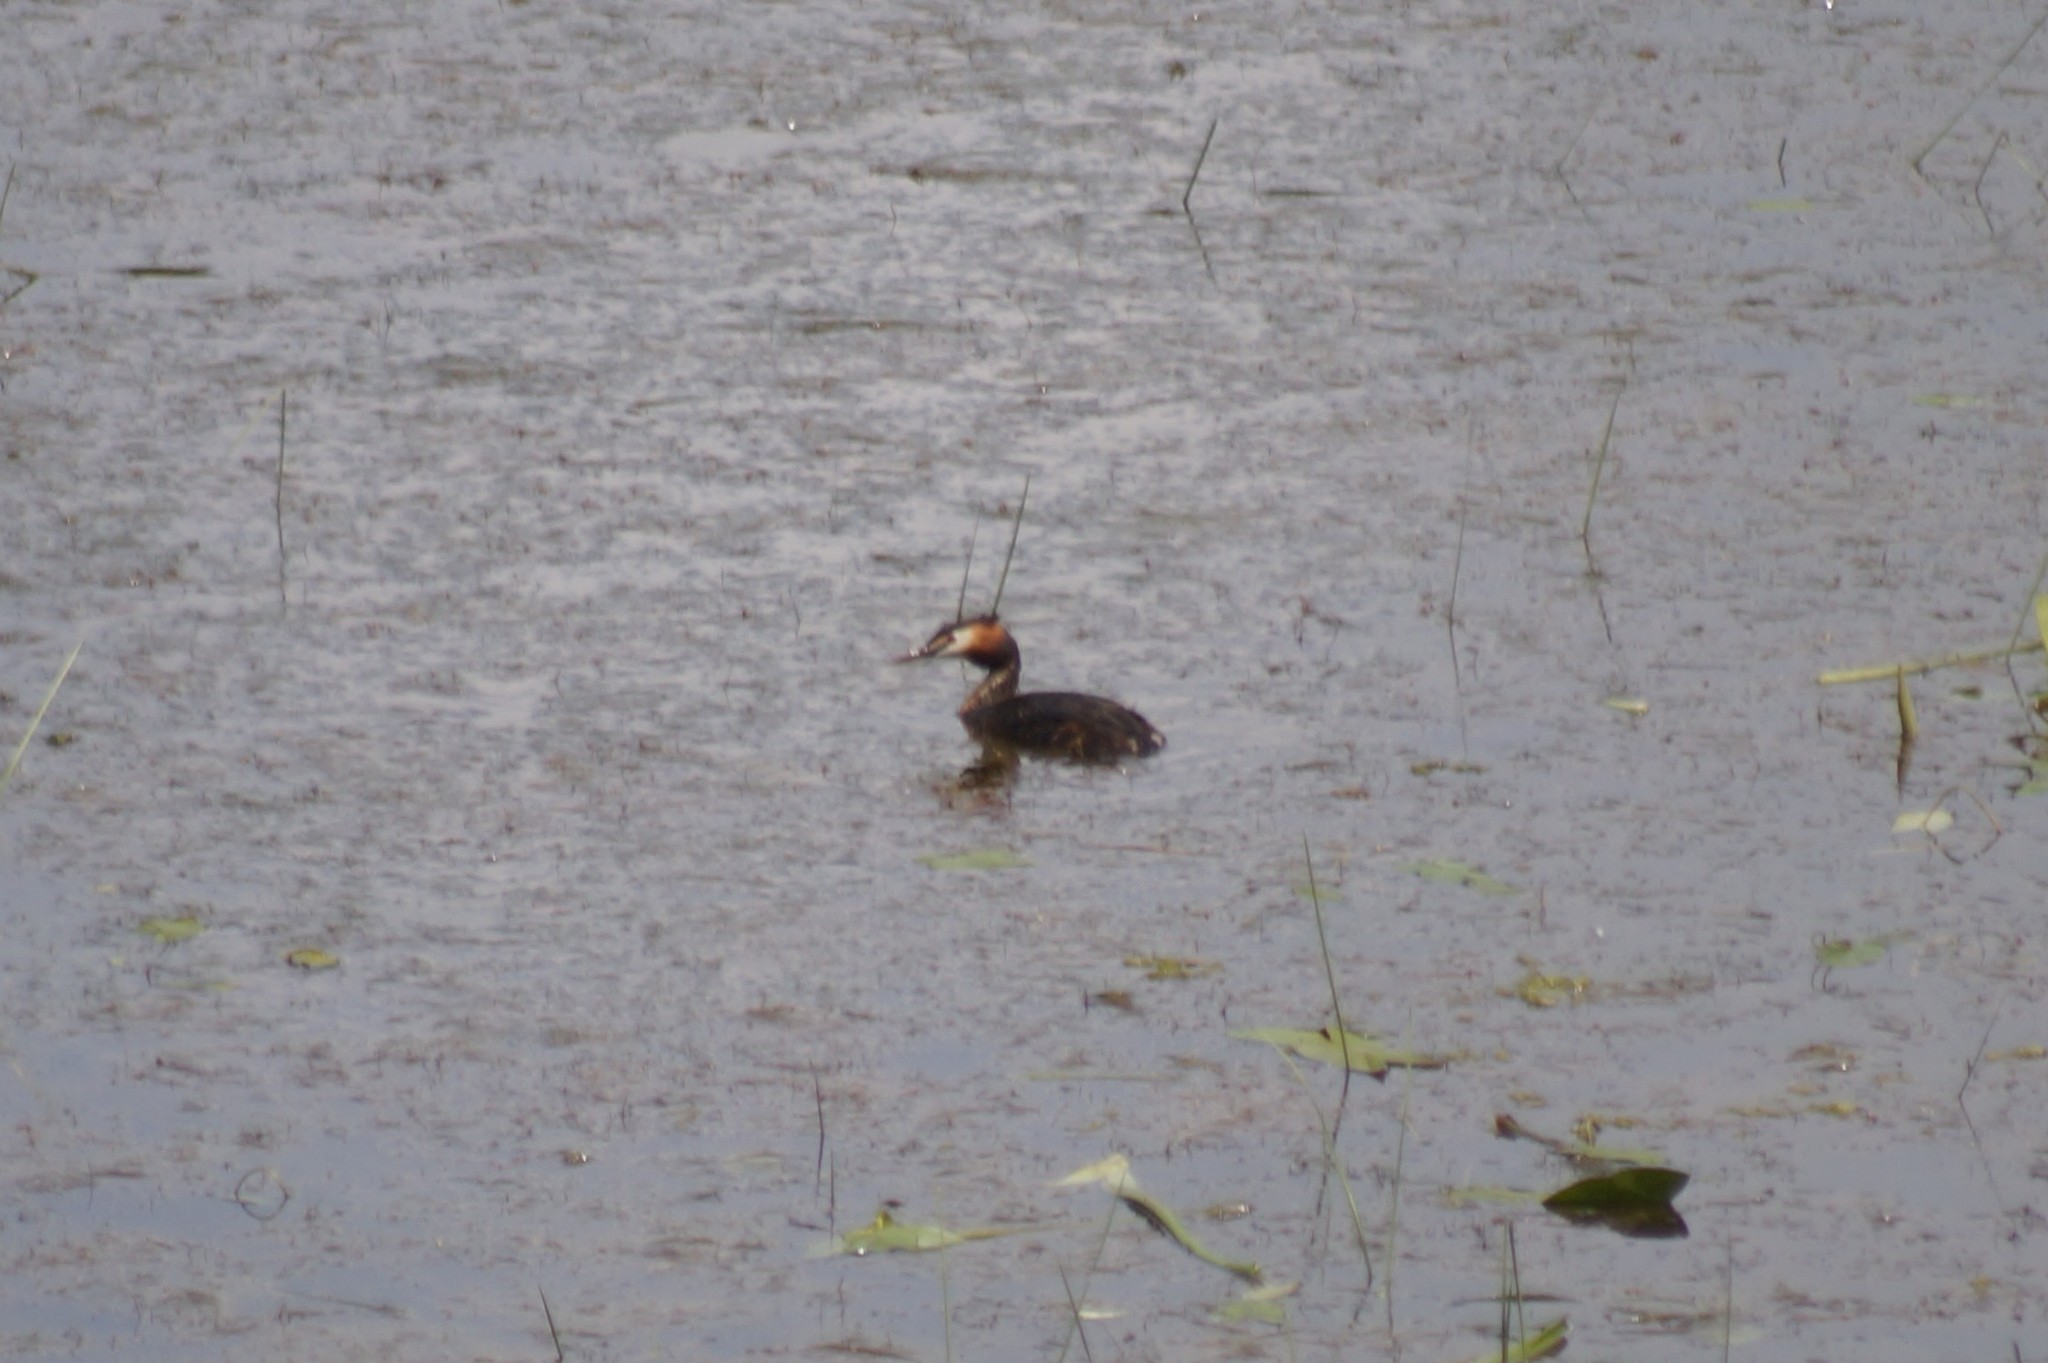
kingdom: Animalia
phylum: Chordata
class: Aves
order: Podicipediformes
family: Podicipedidae
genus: Podiceps
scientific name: Podiceps cristatus
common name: Great crested grebe
